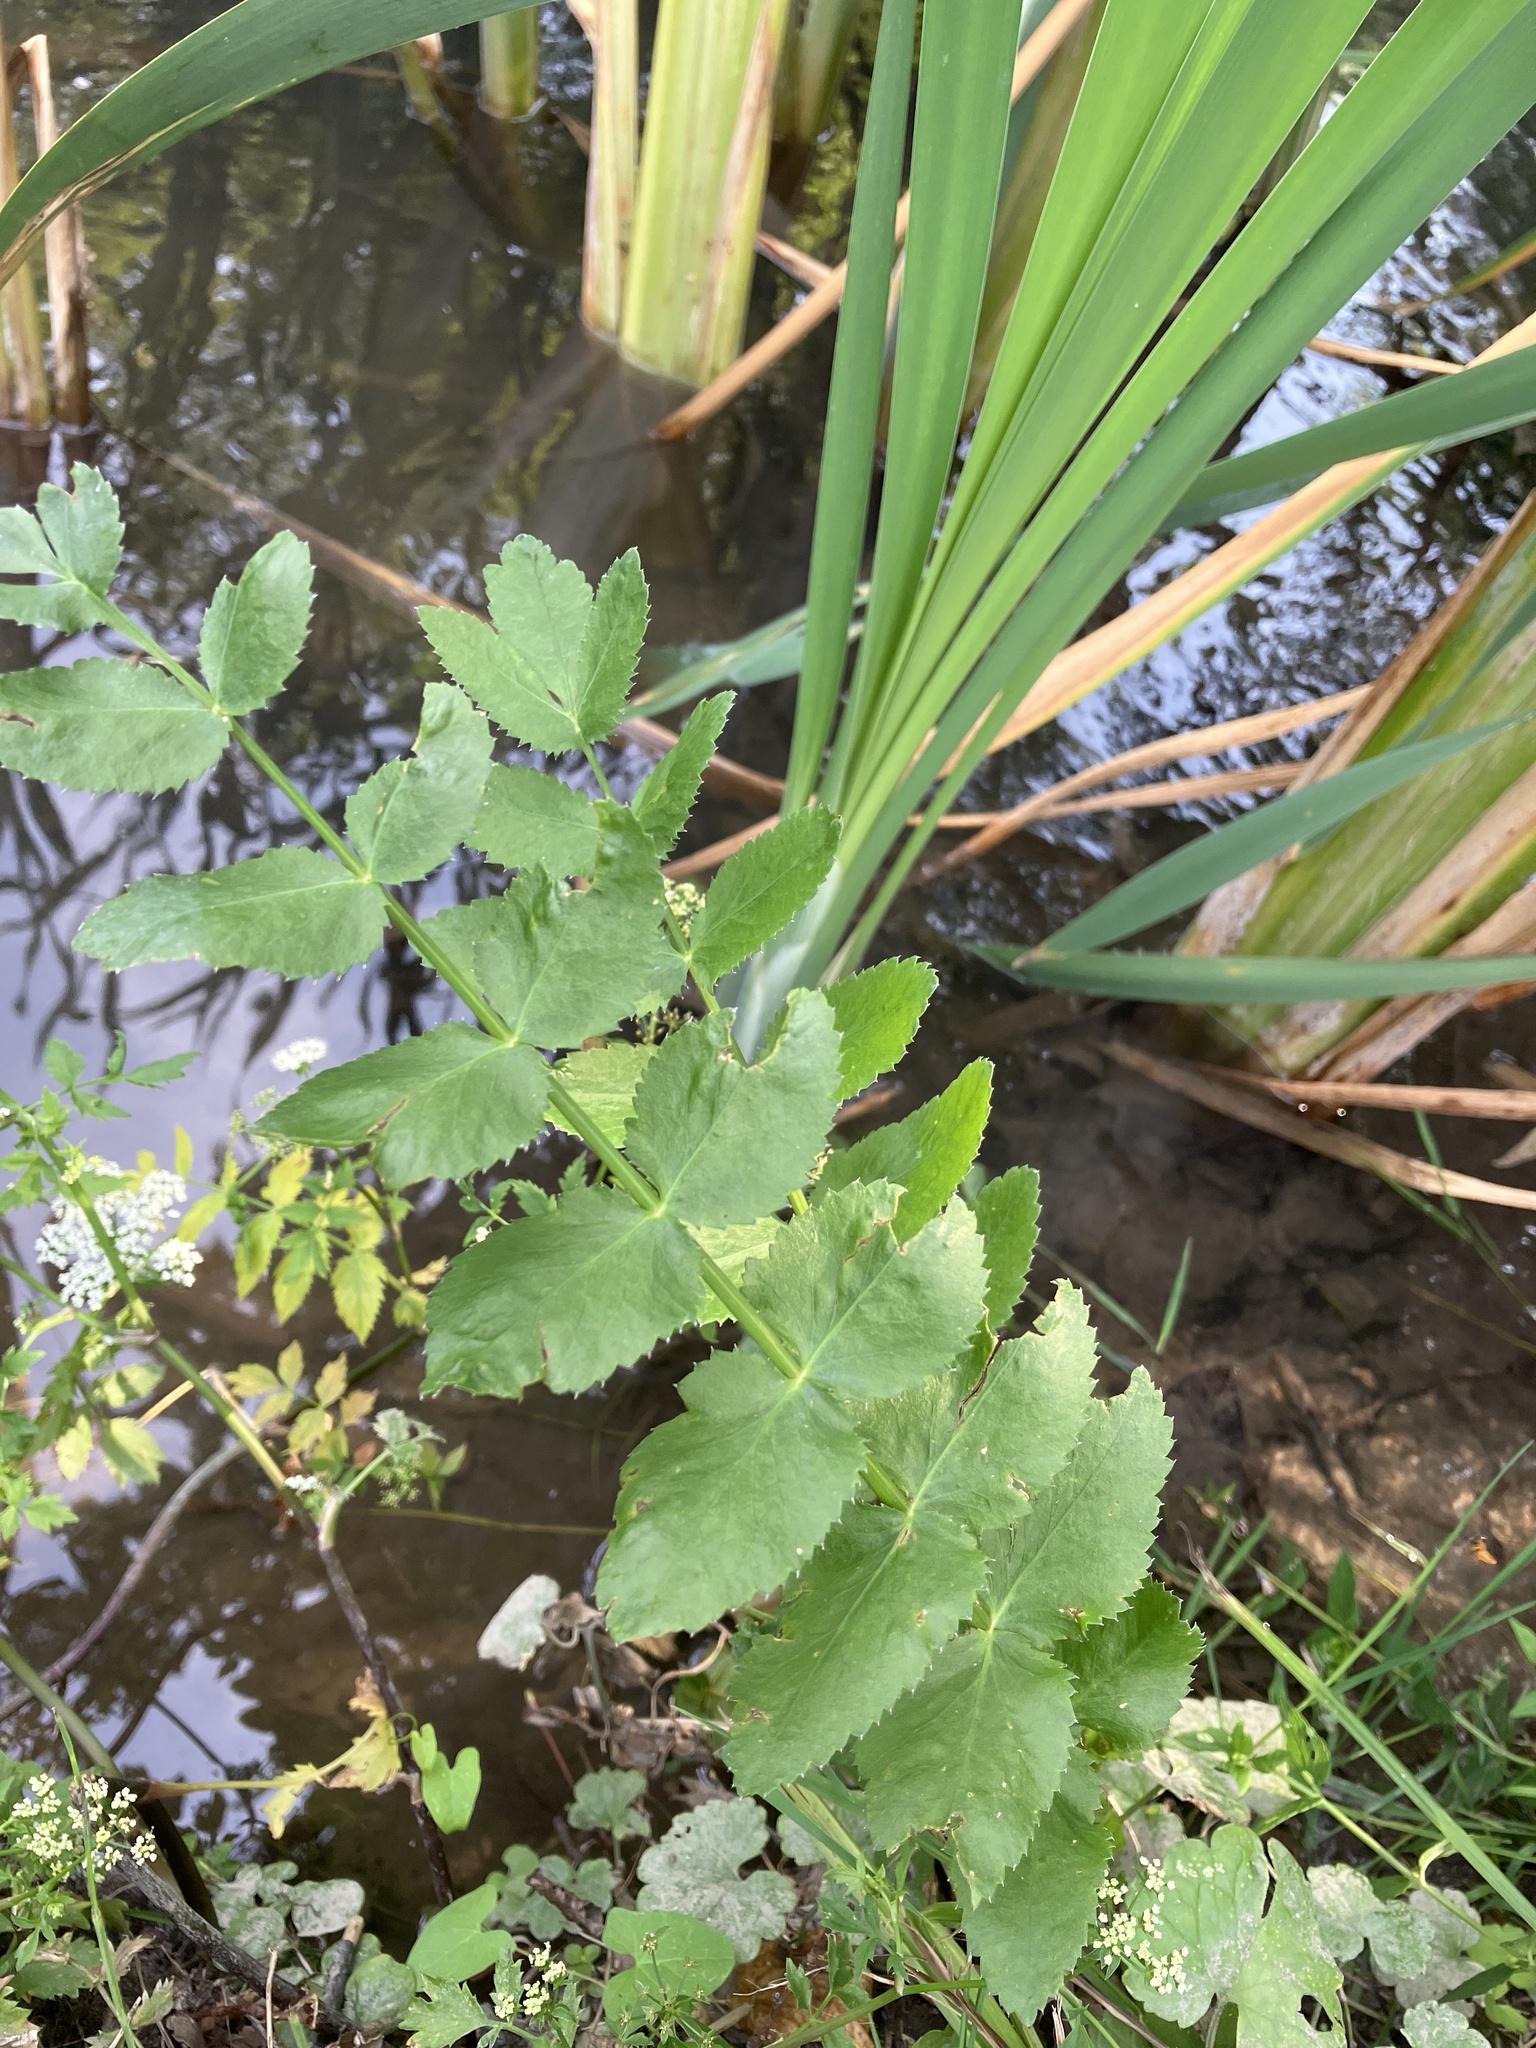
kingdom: Plantae
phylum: Tracheophyta
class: Magnoliopsida
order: Apiales
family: Apiaceae
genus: Berula
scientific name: Berula erecta
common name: Lesser water-parsnip
